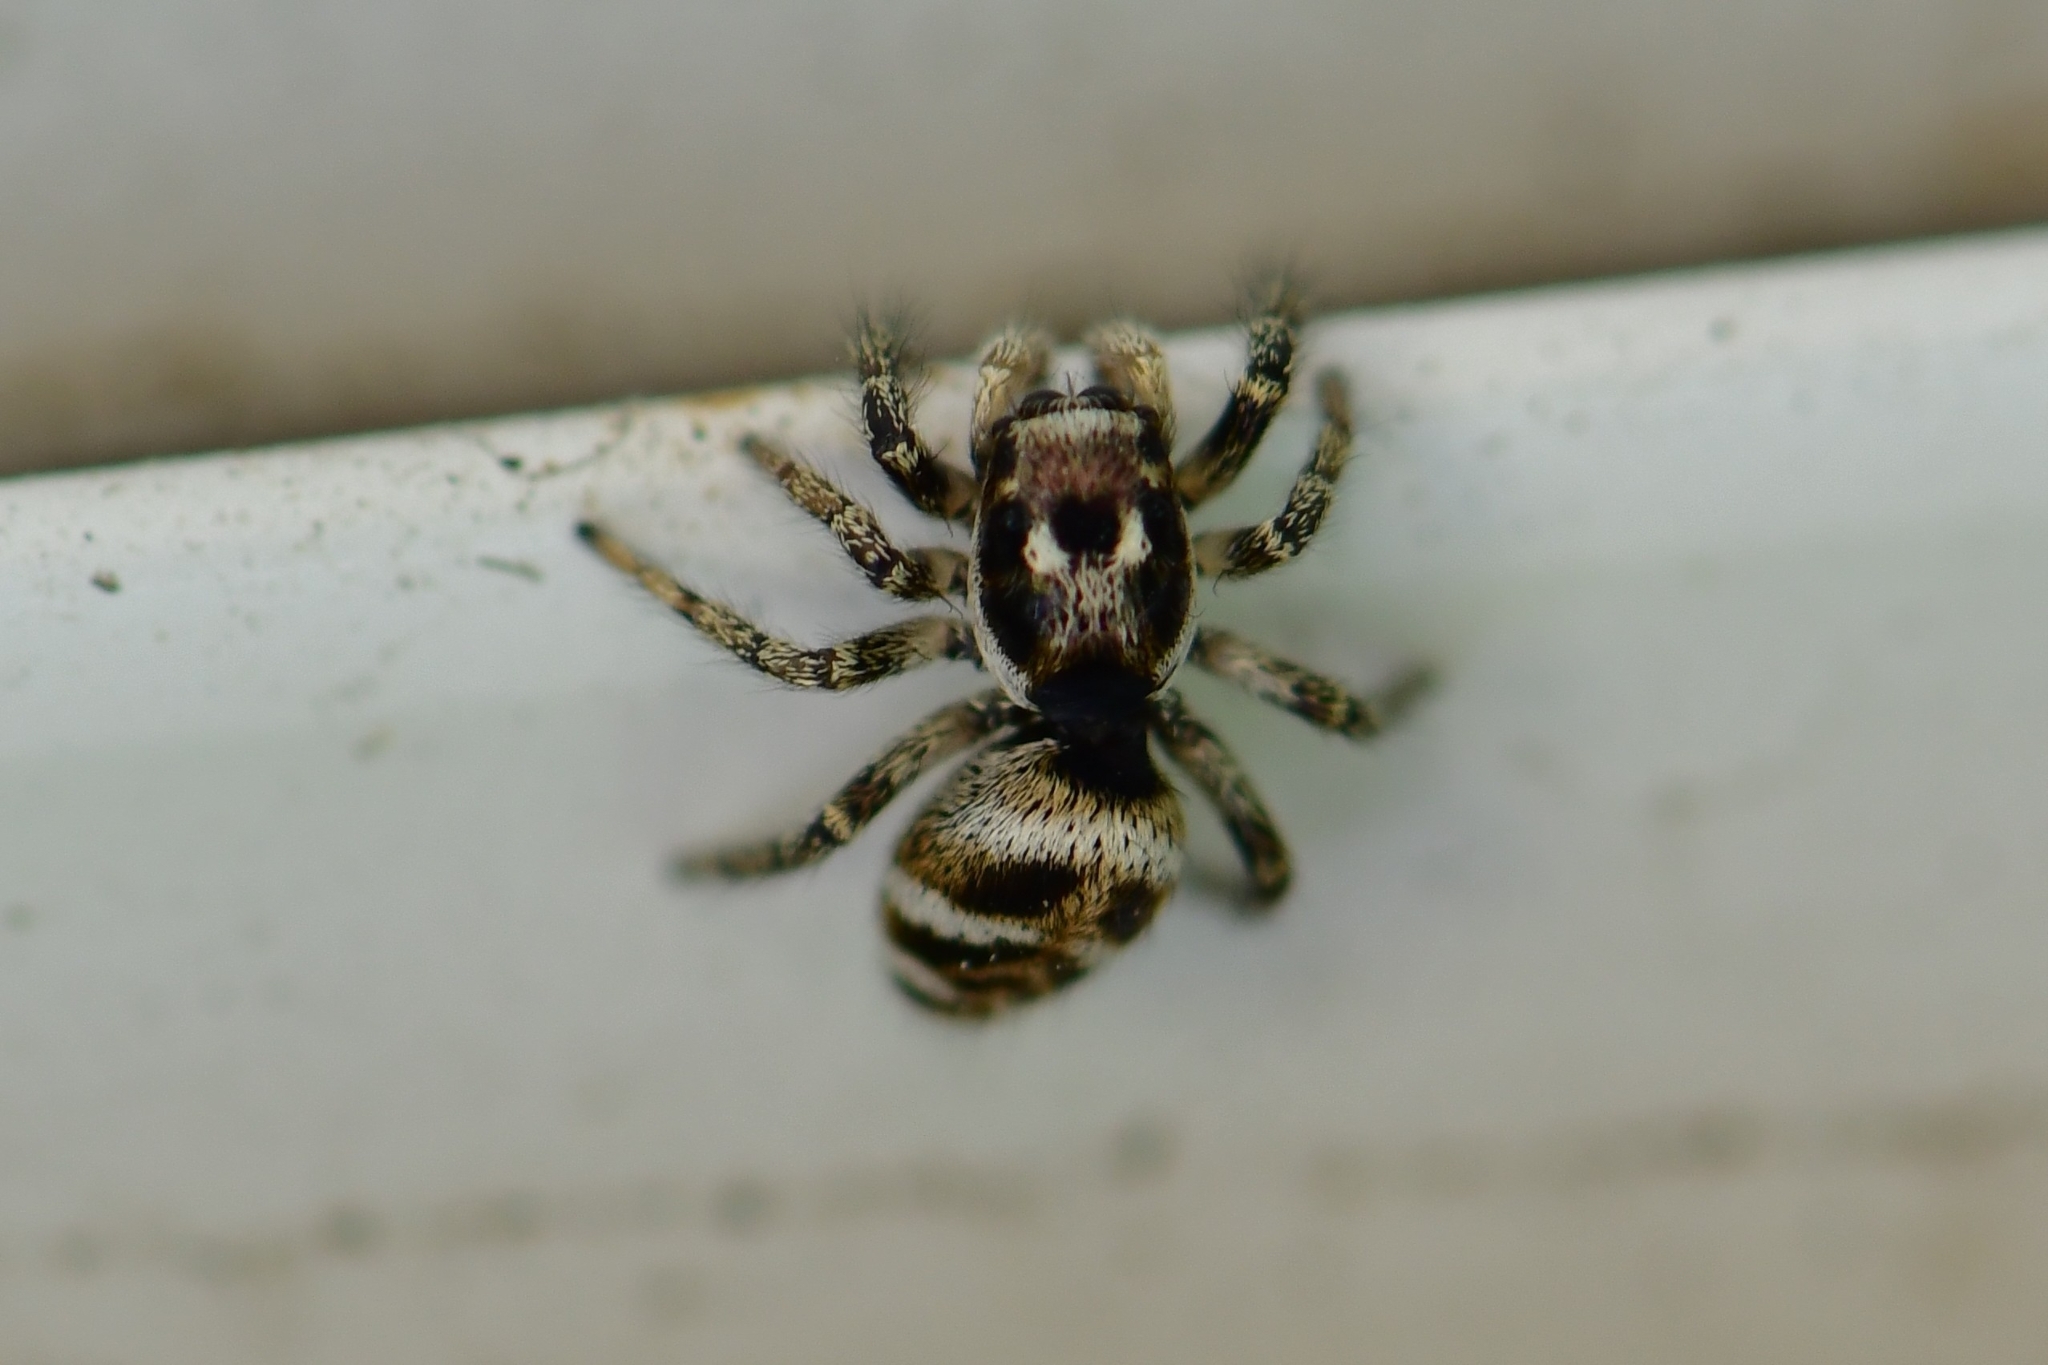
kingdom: Animalia
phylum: Arthropoda
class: Arachnida
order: Araneae
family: Salticidae
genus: Salticus
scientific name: Salticus scenicus
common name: Zebra jumper
